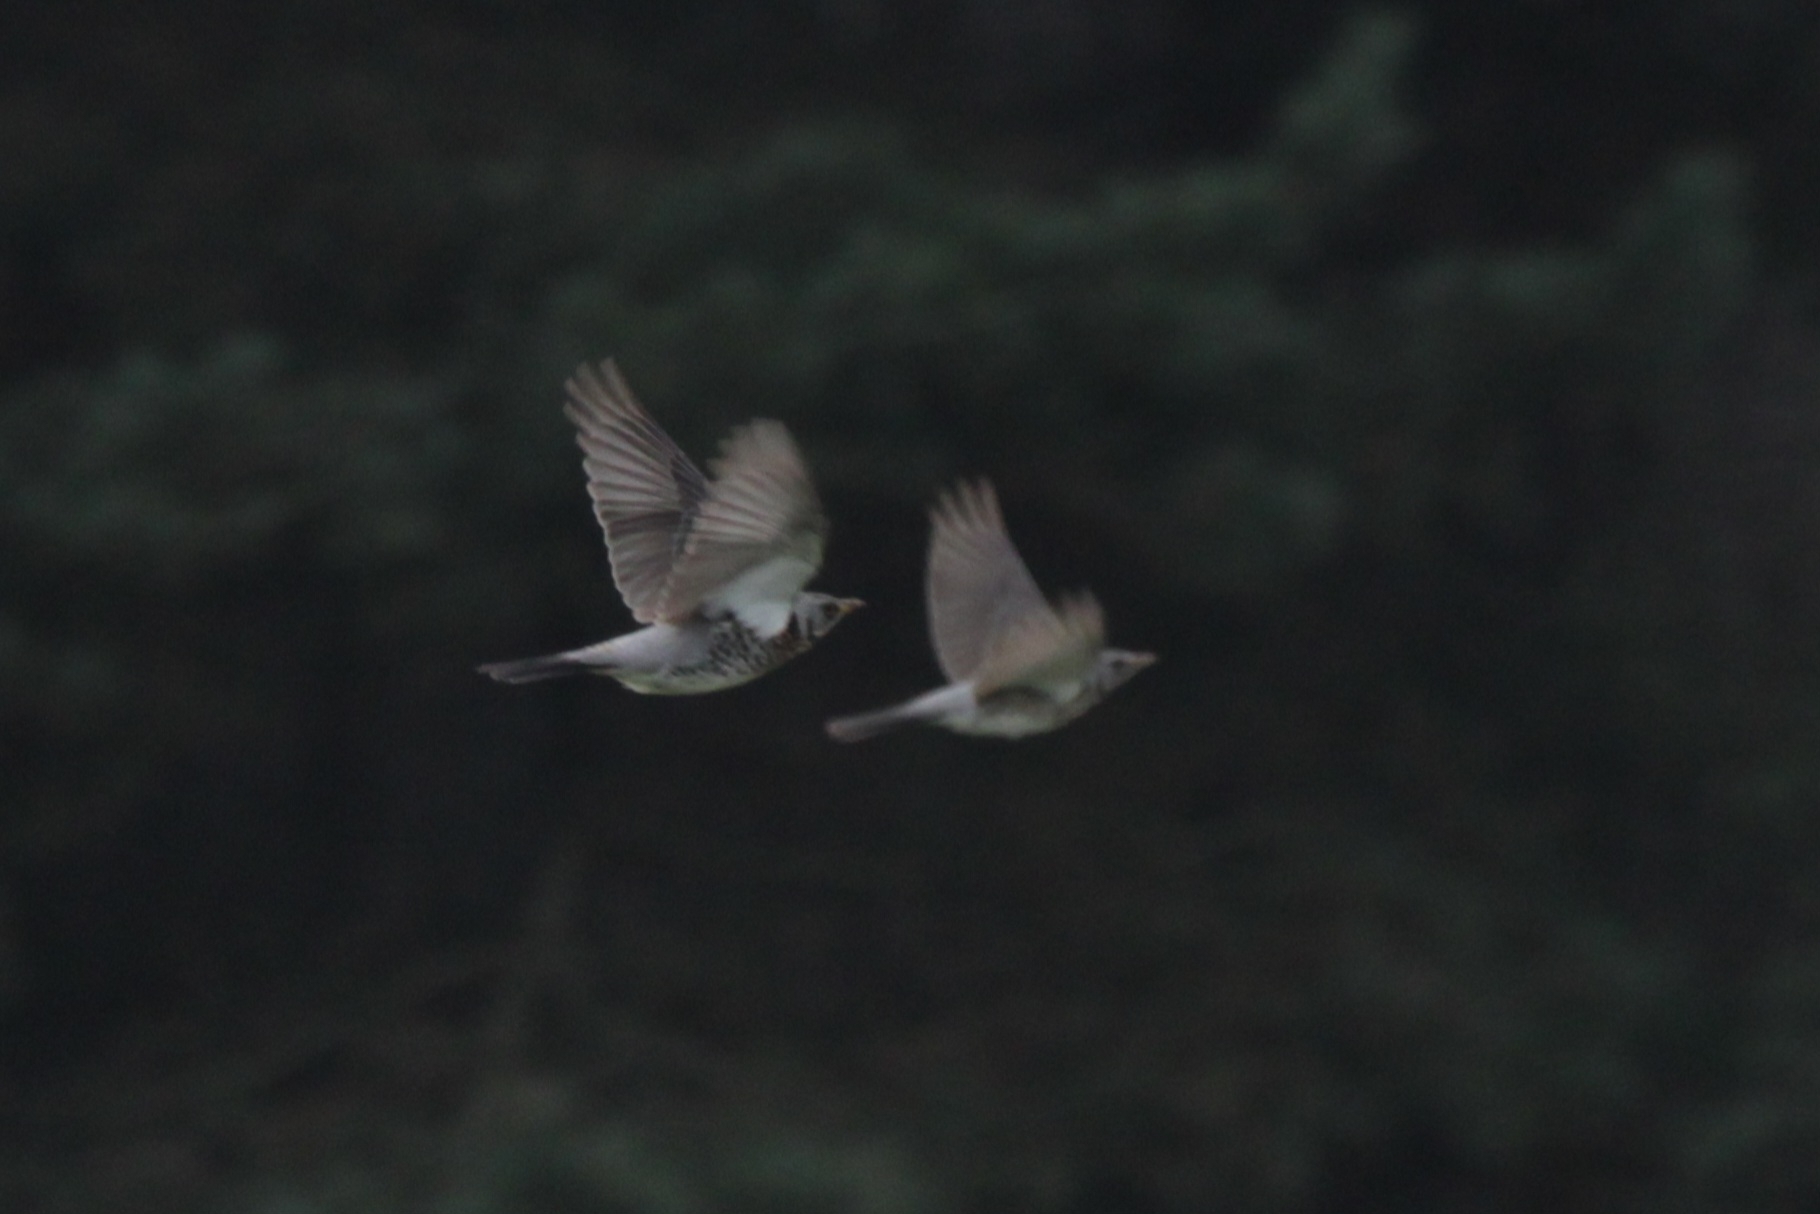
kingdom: Animalia
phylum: Chordata
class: Aves
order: Passeriformes
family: Turdidae
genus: Turdus
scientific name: Turdus pilaris
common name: Fieldfare
